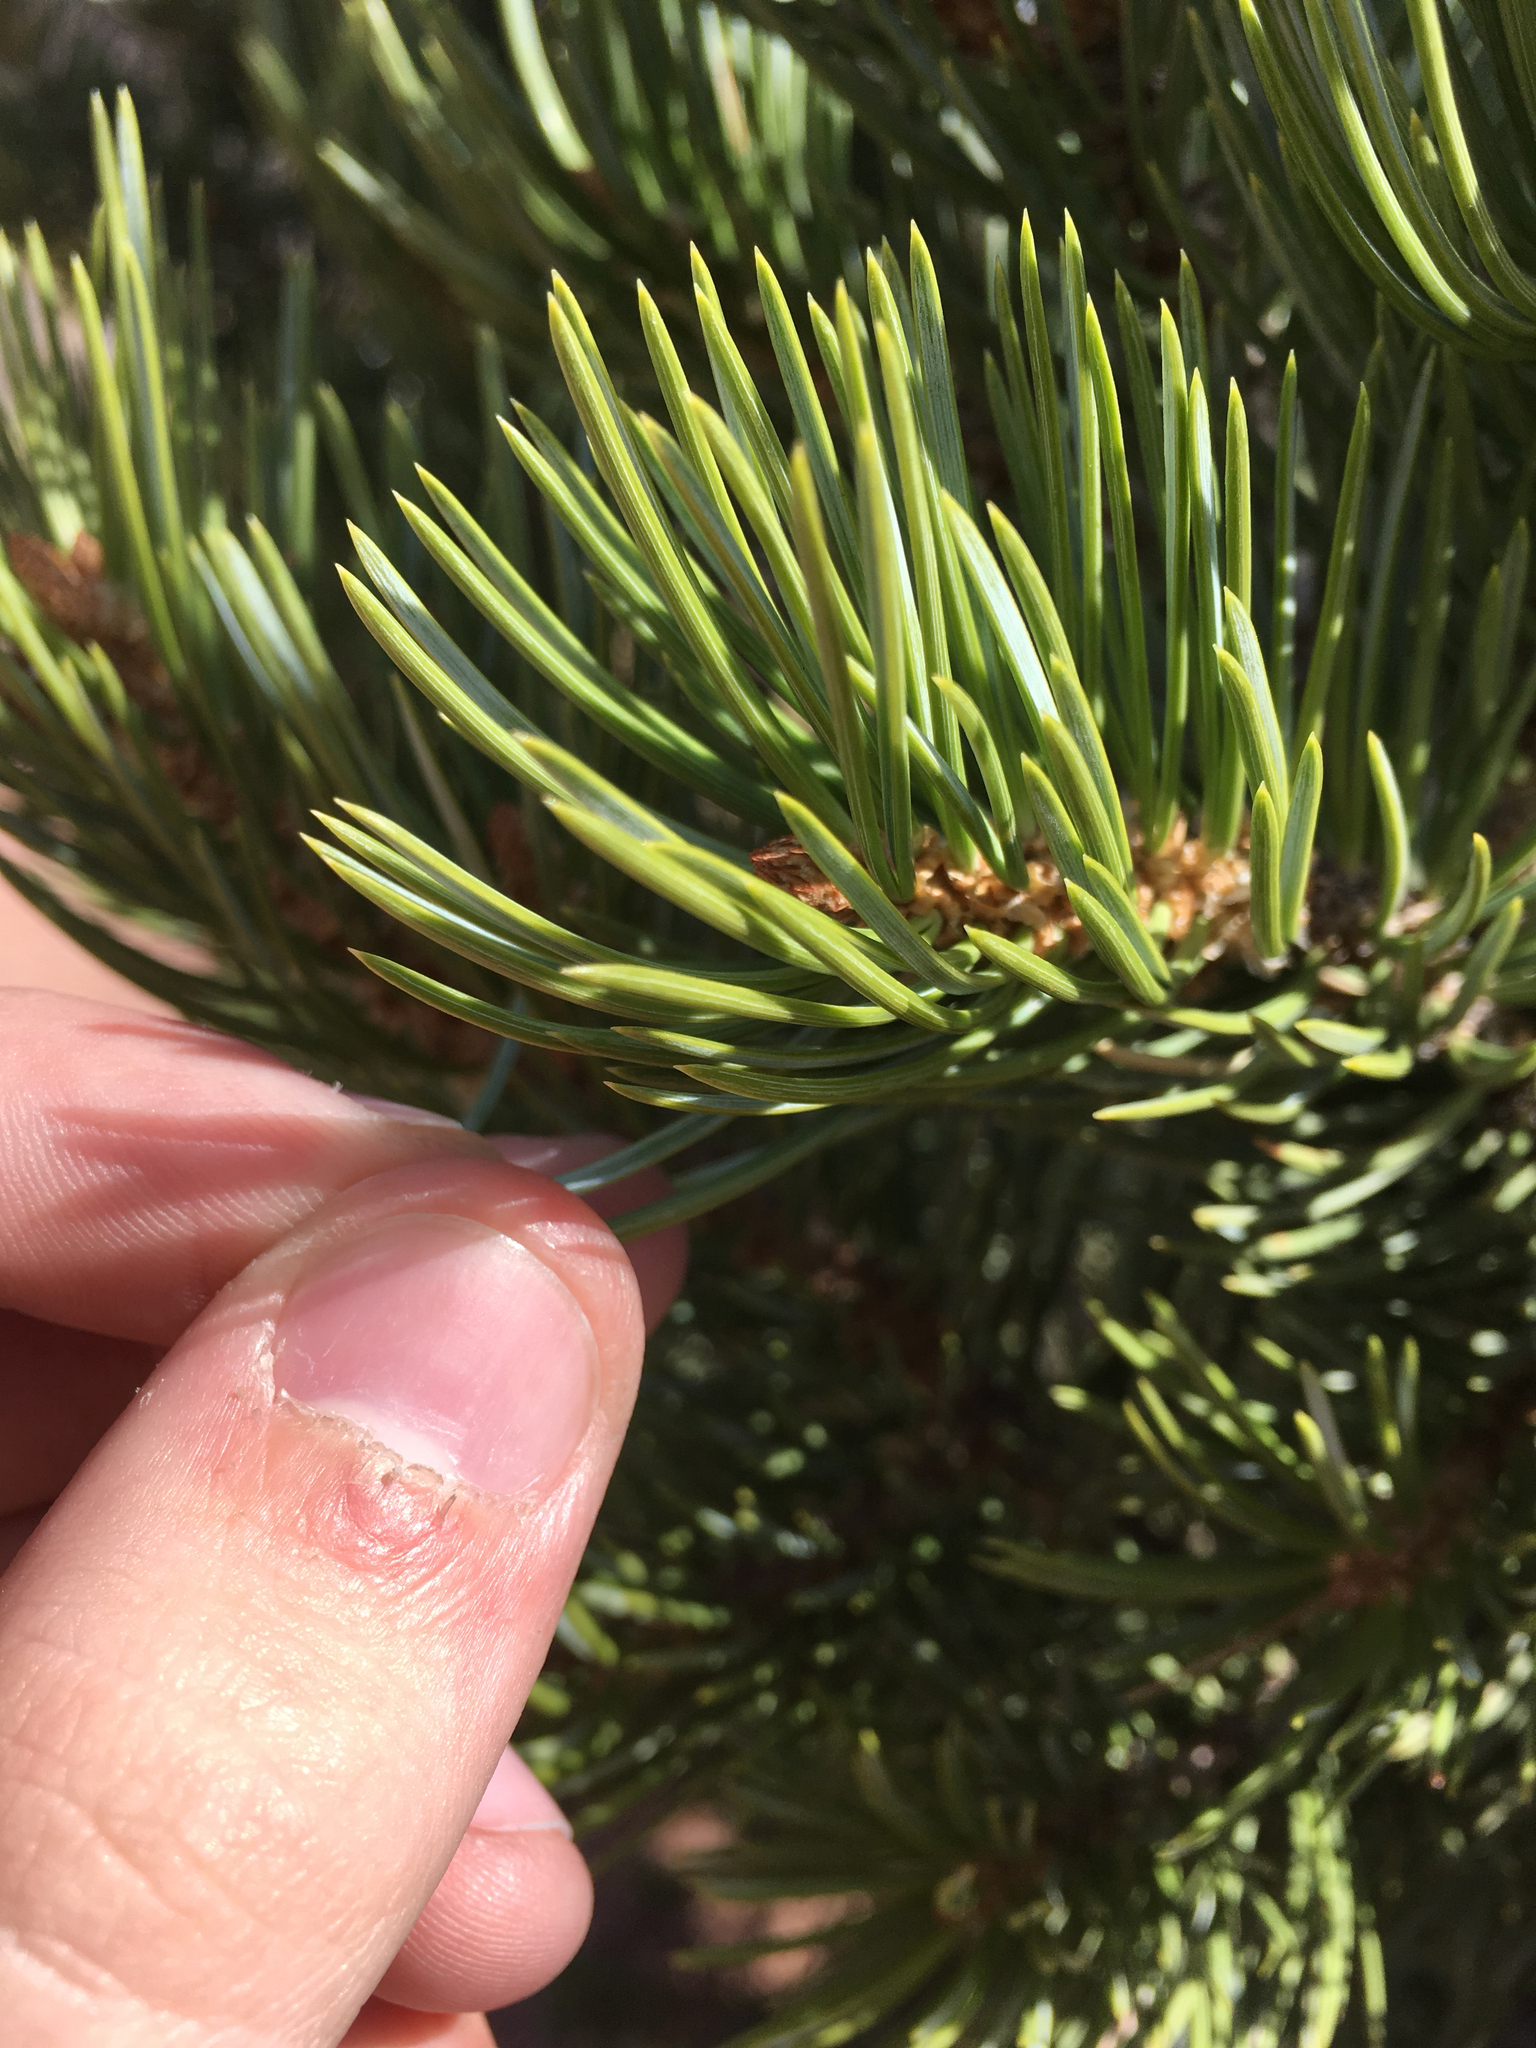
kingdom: Plantae
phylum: Tracheophyta
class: Pinopsida
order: Pinales
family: Pinaceae
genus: Pinus
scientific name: Pinus edulis
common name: Colorado pinyon
